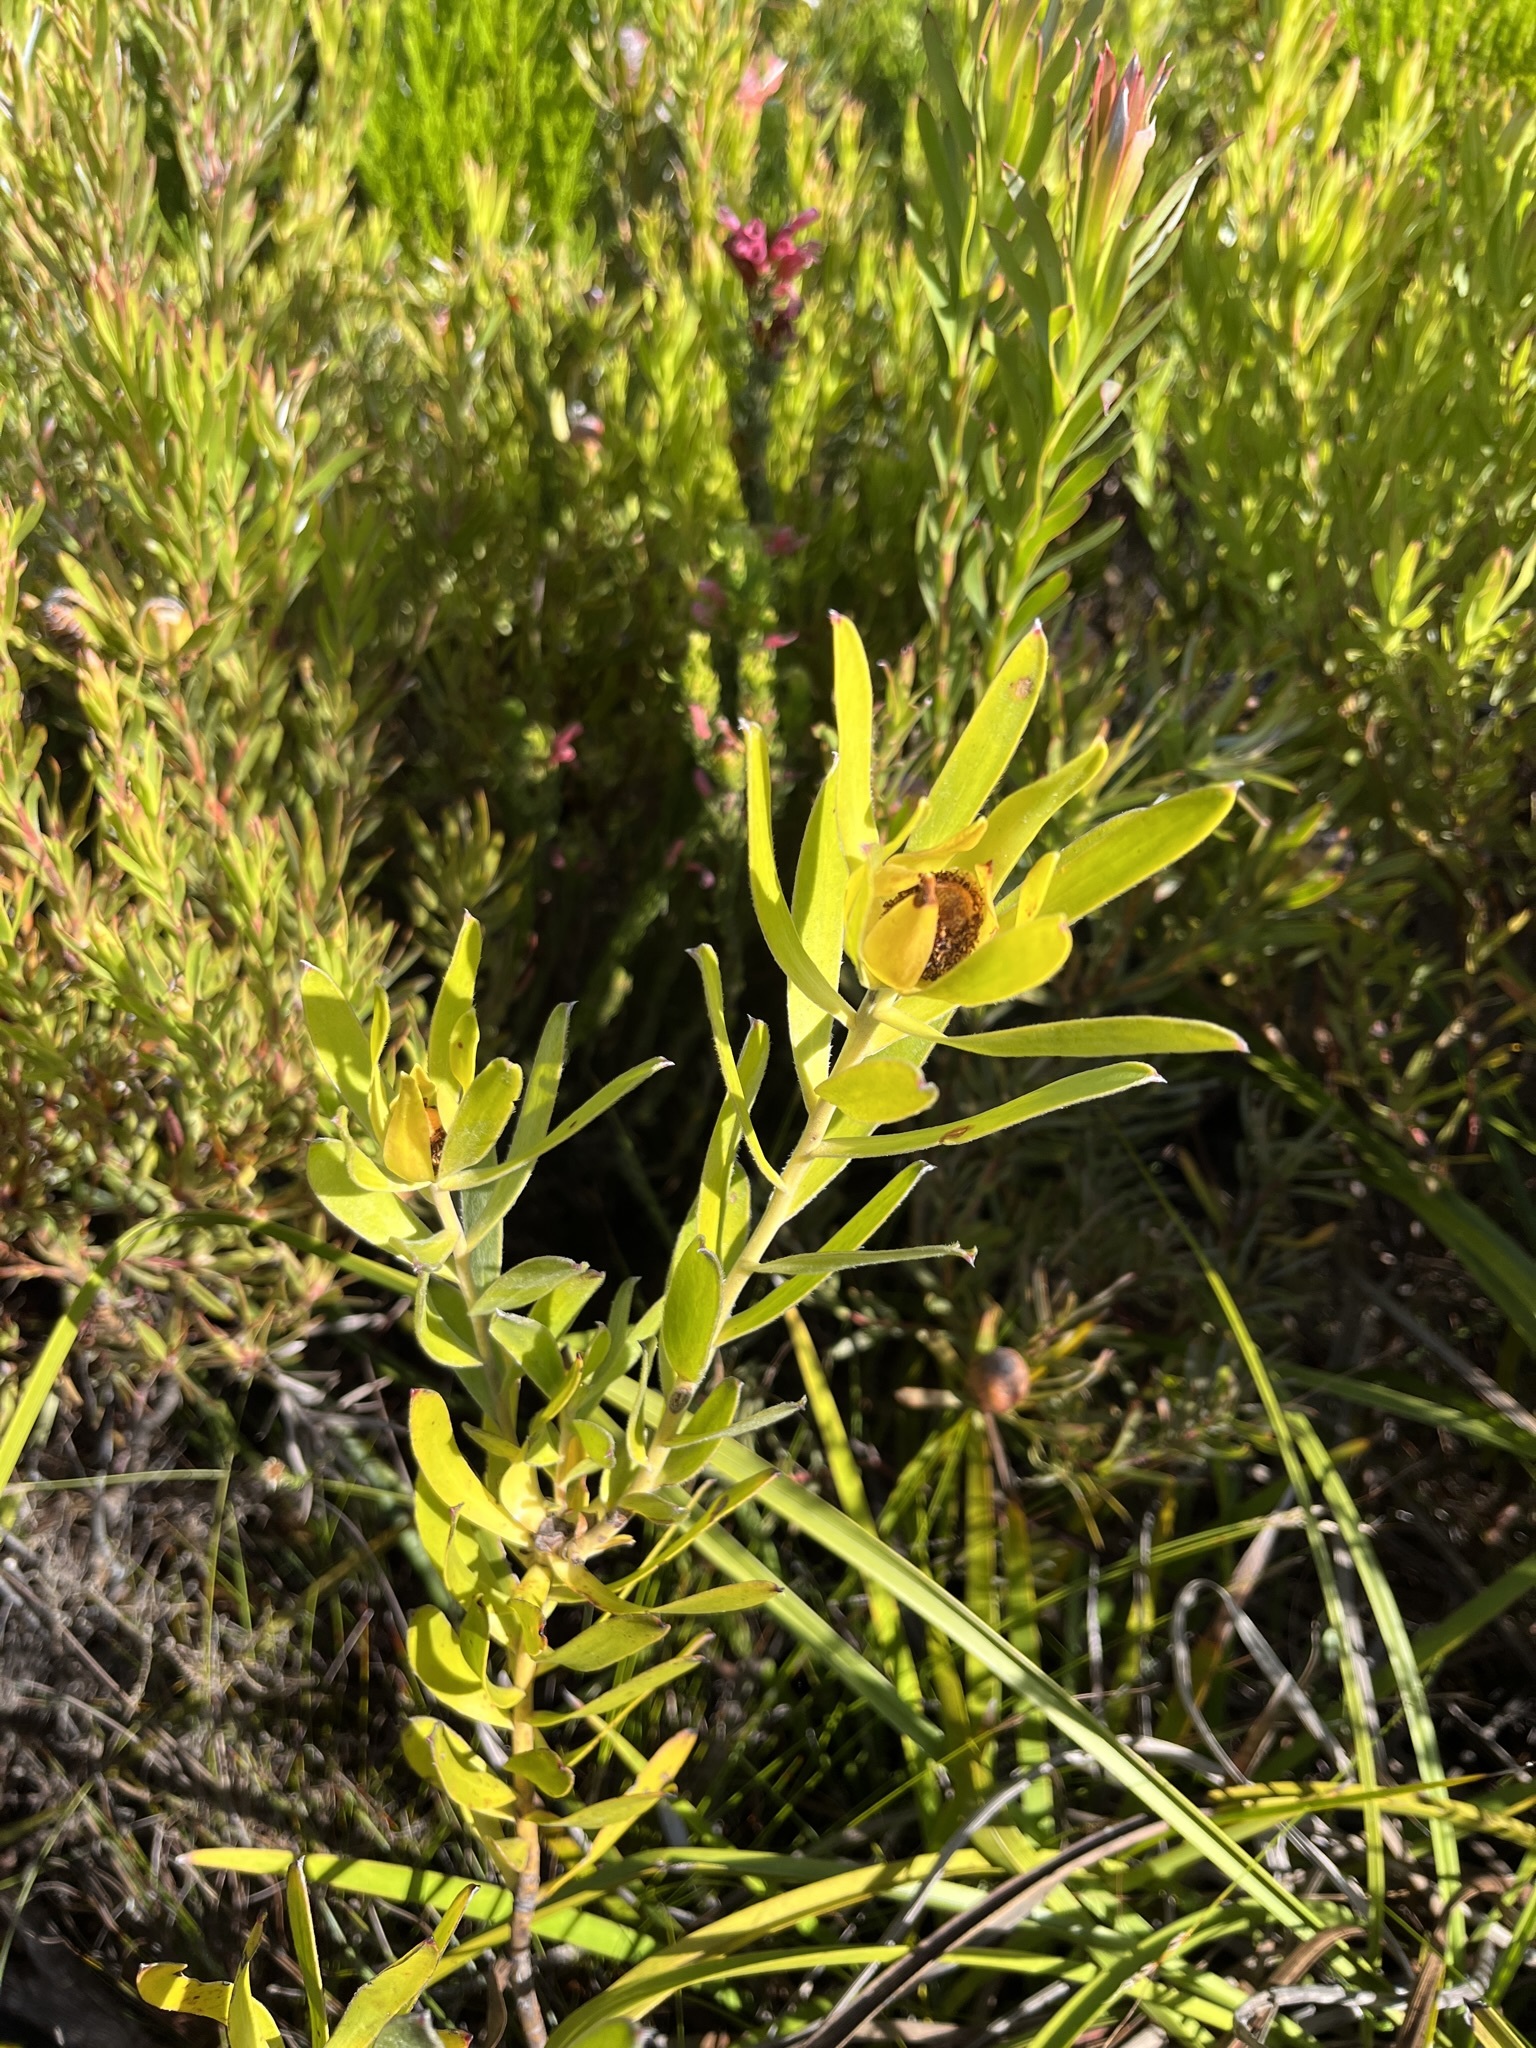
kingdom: Plantae
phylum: Tracheophyta
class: Magnoliopsida
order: Proteales
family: Proteaceae
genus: Leucadendron
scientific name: Leucadendron laureolum
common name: Golden sunshinebush
